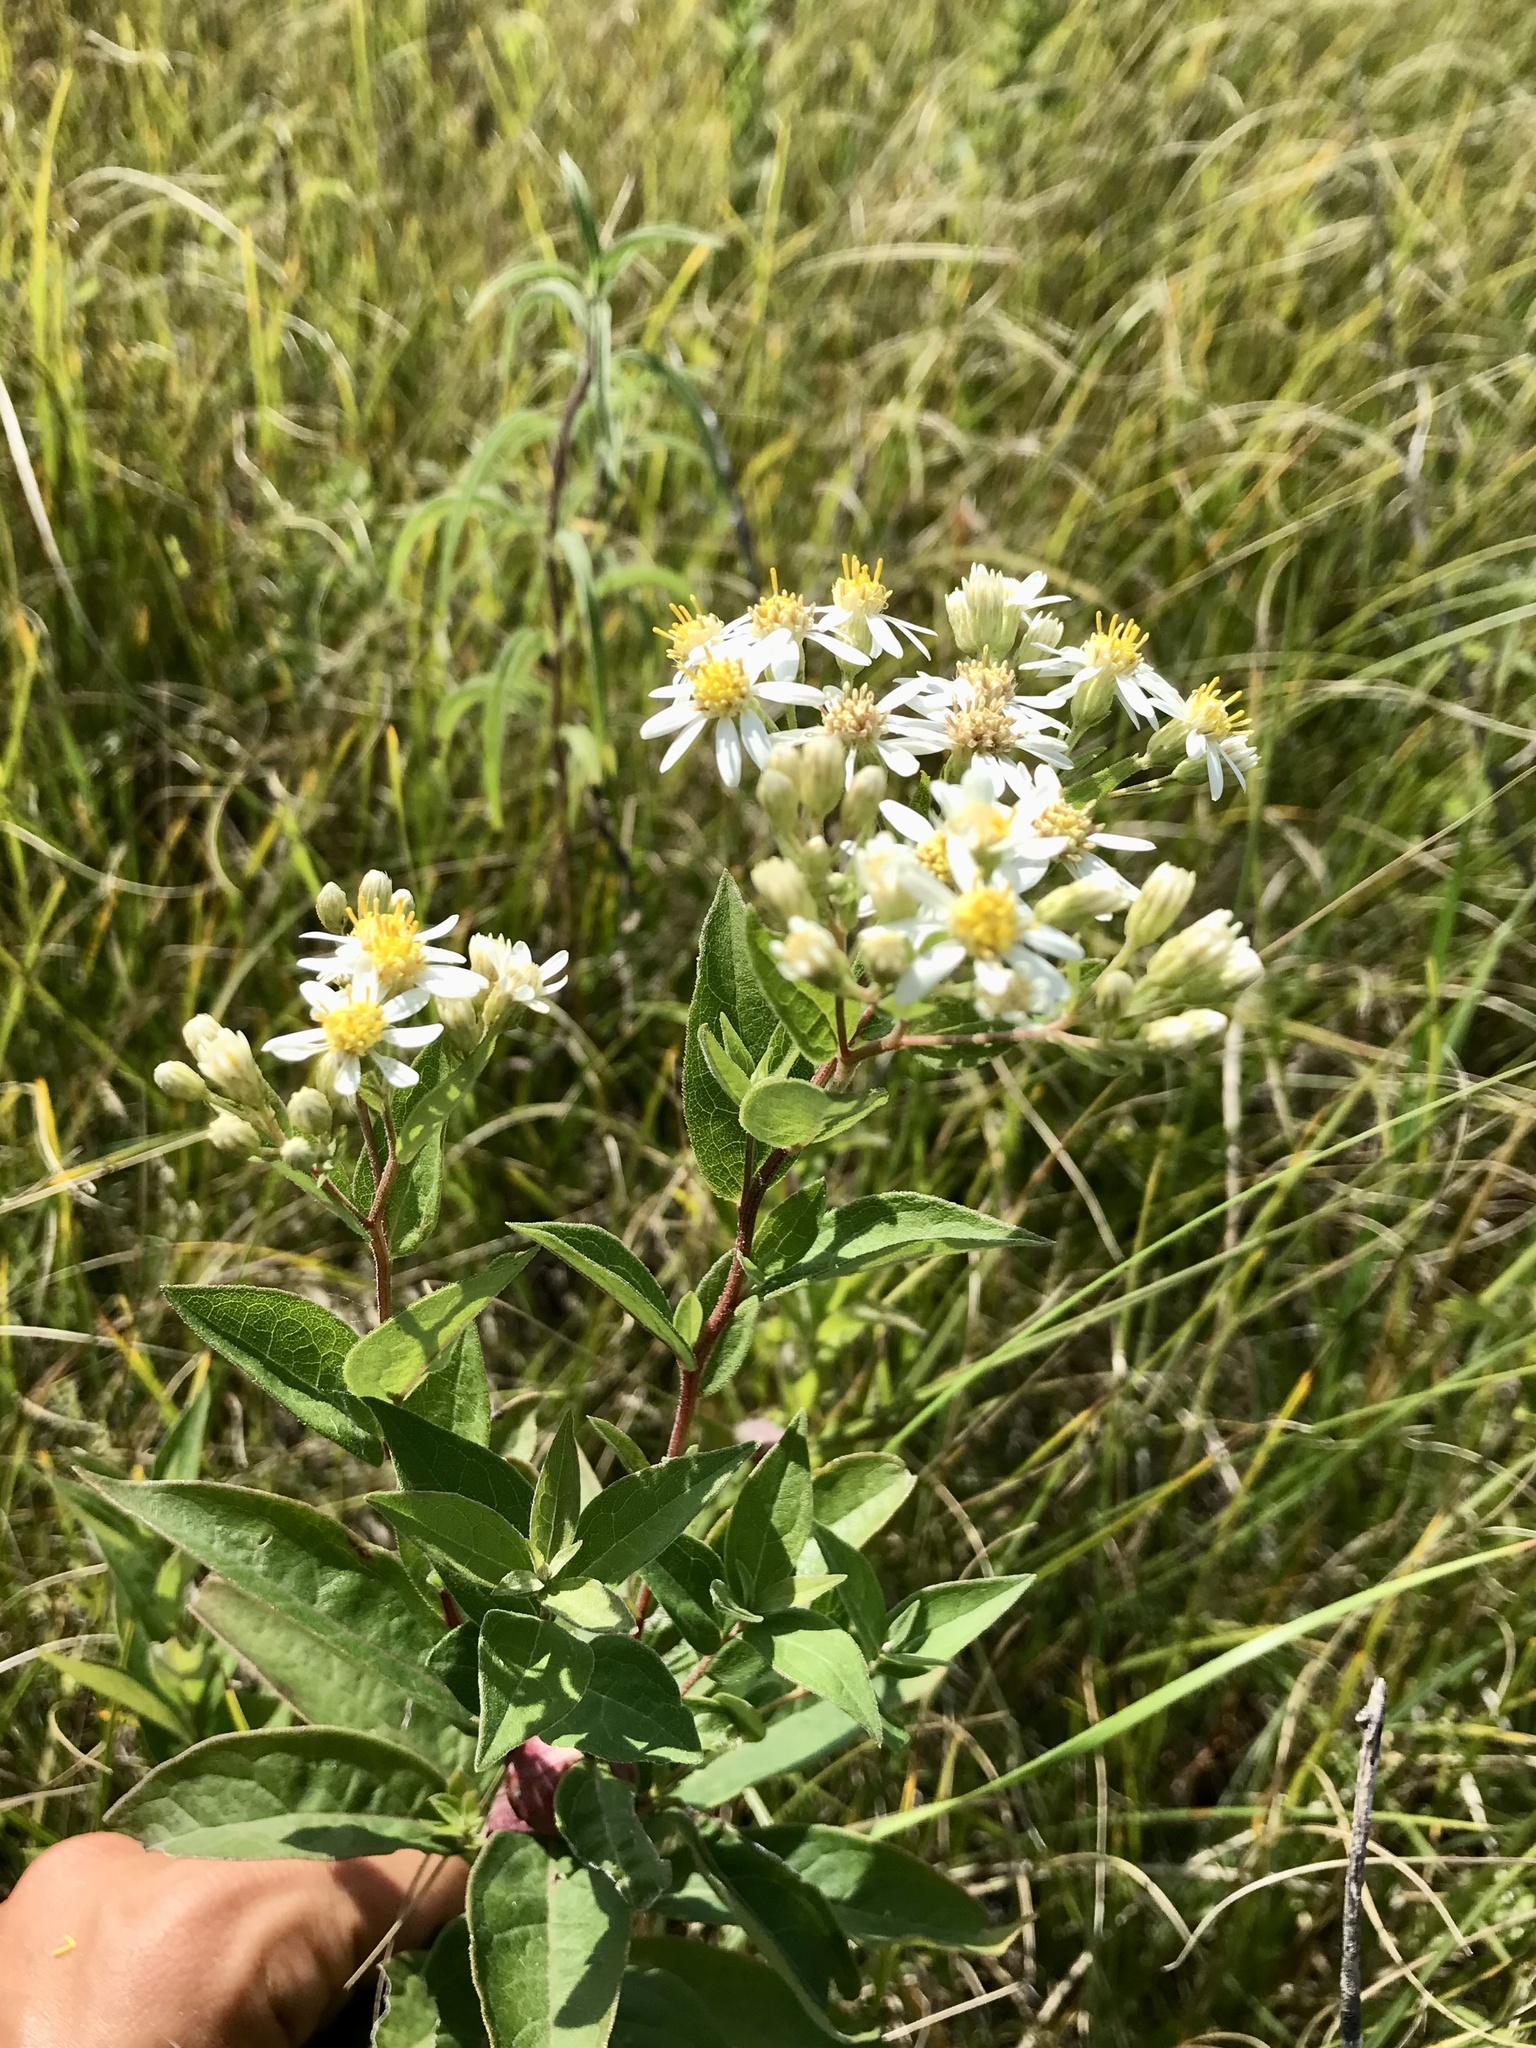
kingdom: Plantae
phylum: Tracheophyta
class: Magnoliopsida
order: Asterales
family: Asteraceae
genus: Doellingeria
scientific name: Doellingeria umbellata
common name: Flat-top white aster
